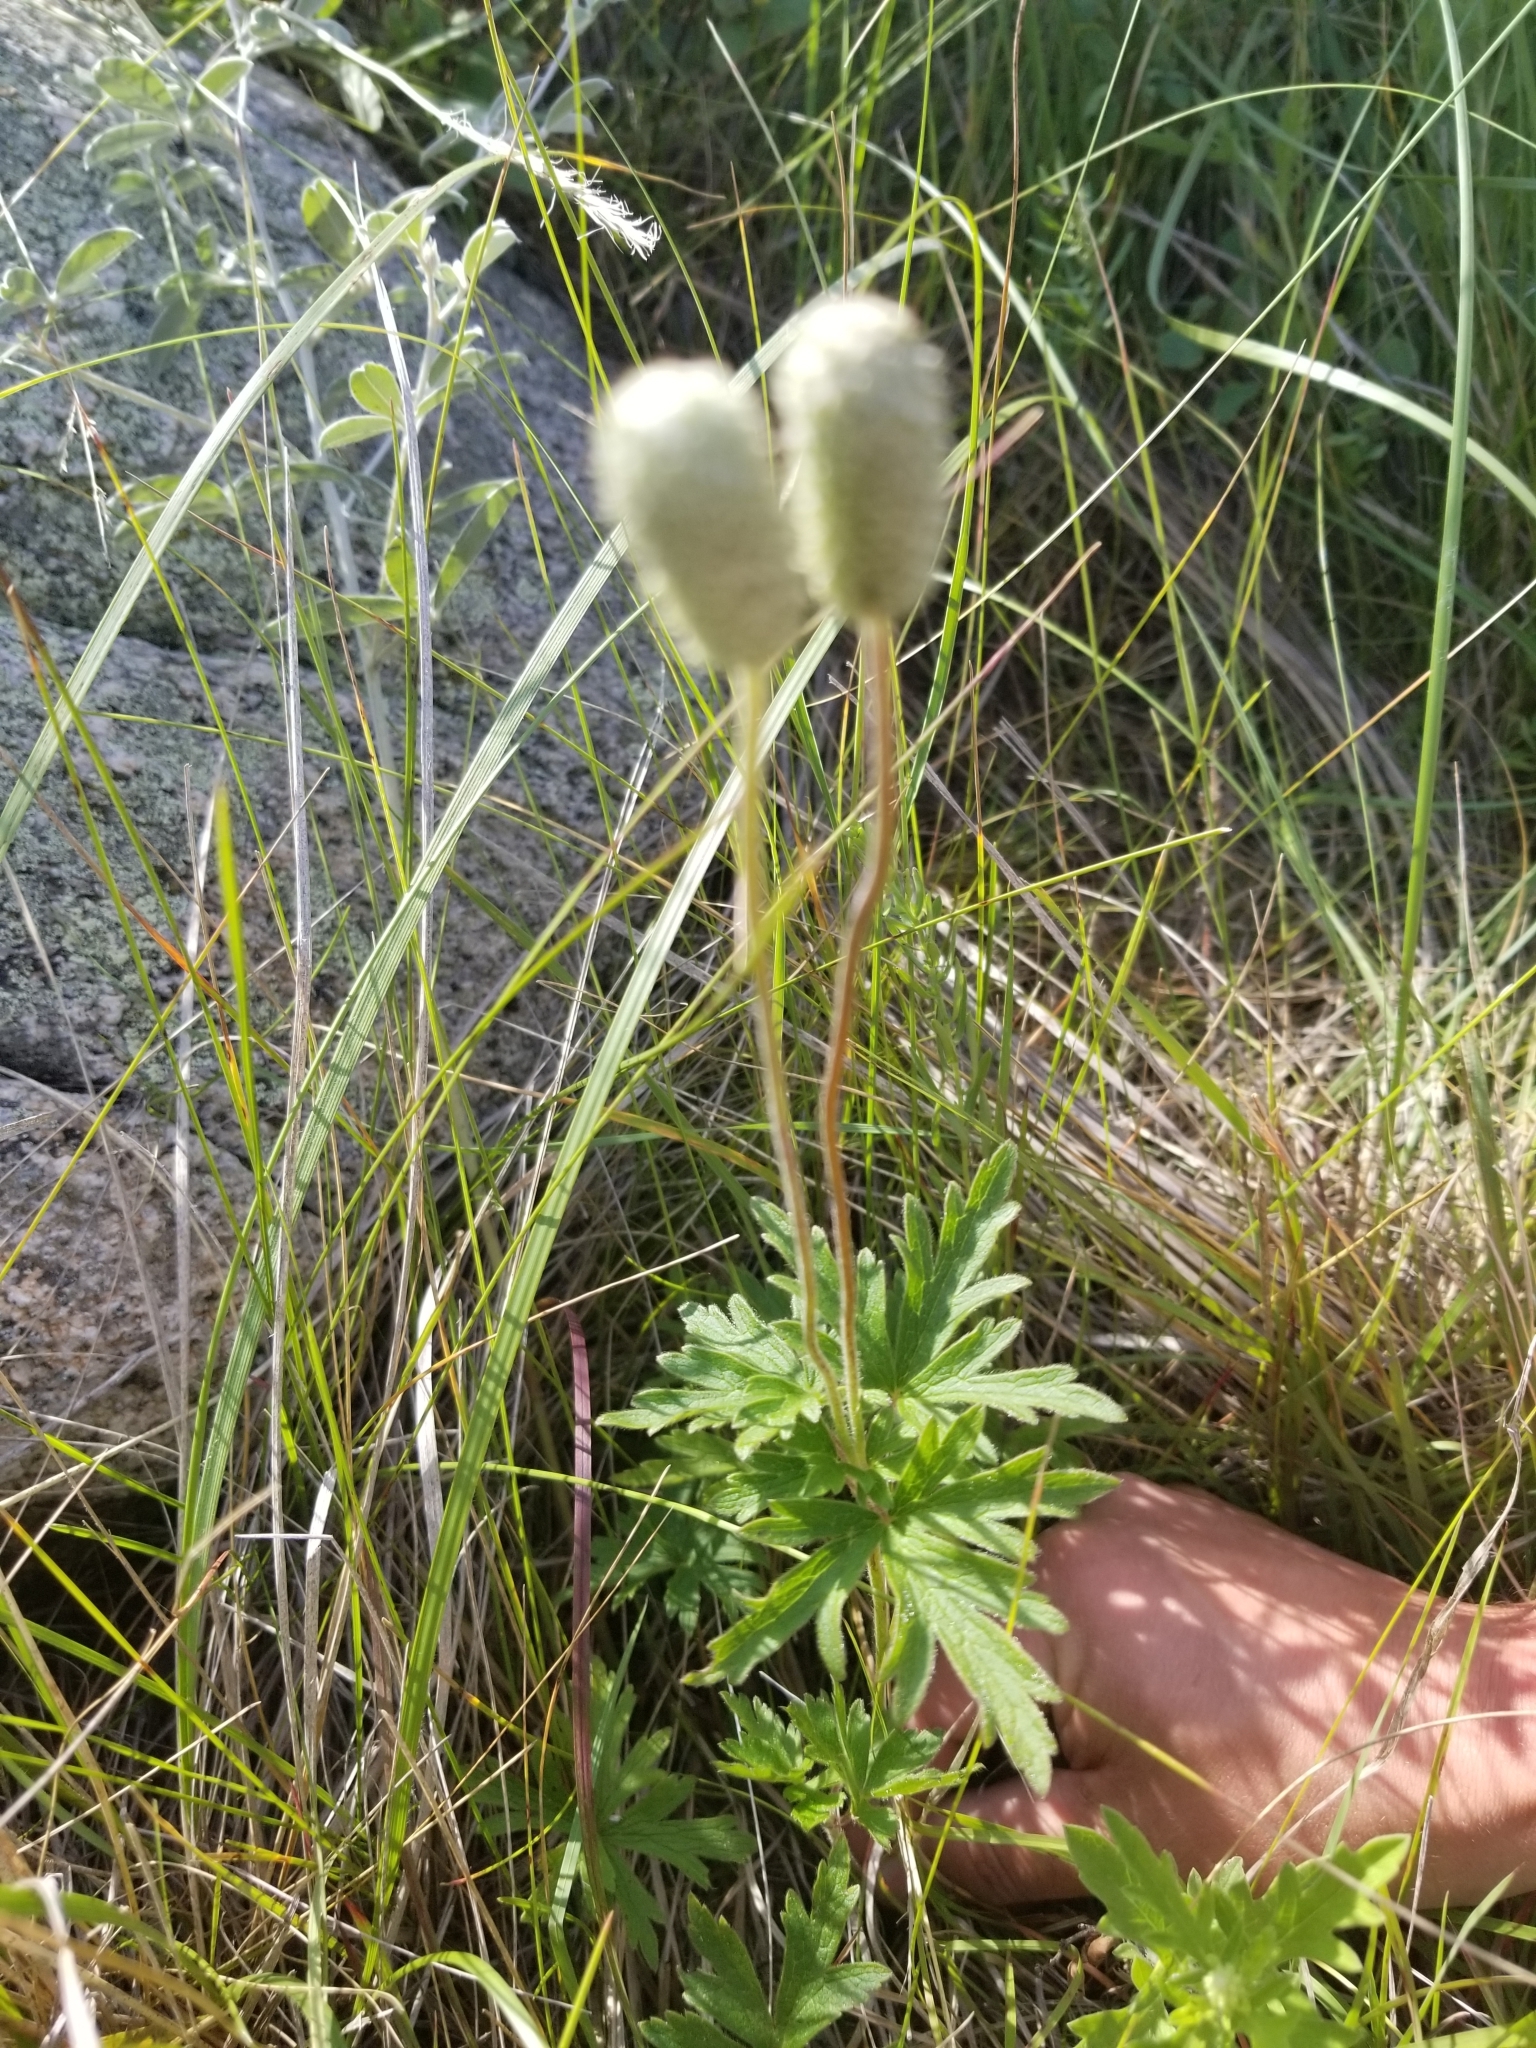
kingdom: Plantae
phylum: Tracheophyta
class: Magnoliopsida
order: Ranunculales
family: Ranunculaceae
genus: Anemone
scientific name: Anemone cylindrica
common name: Candle anemone
